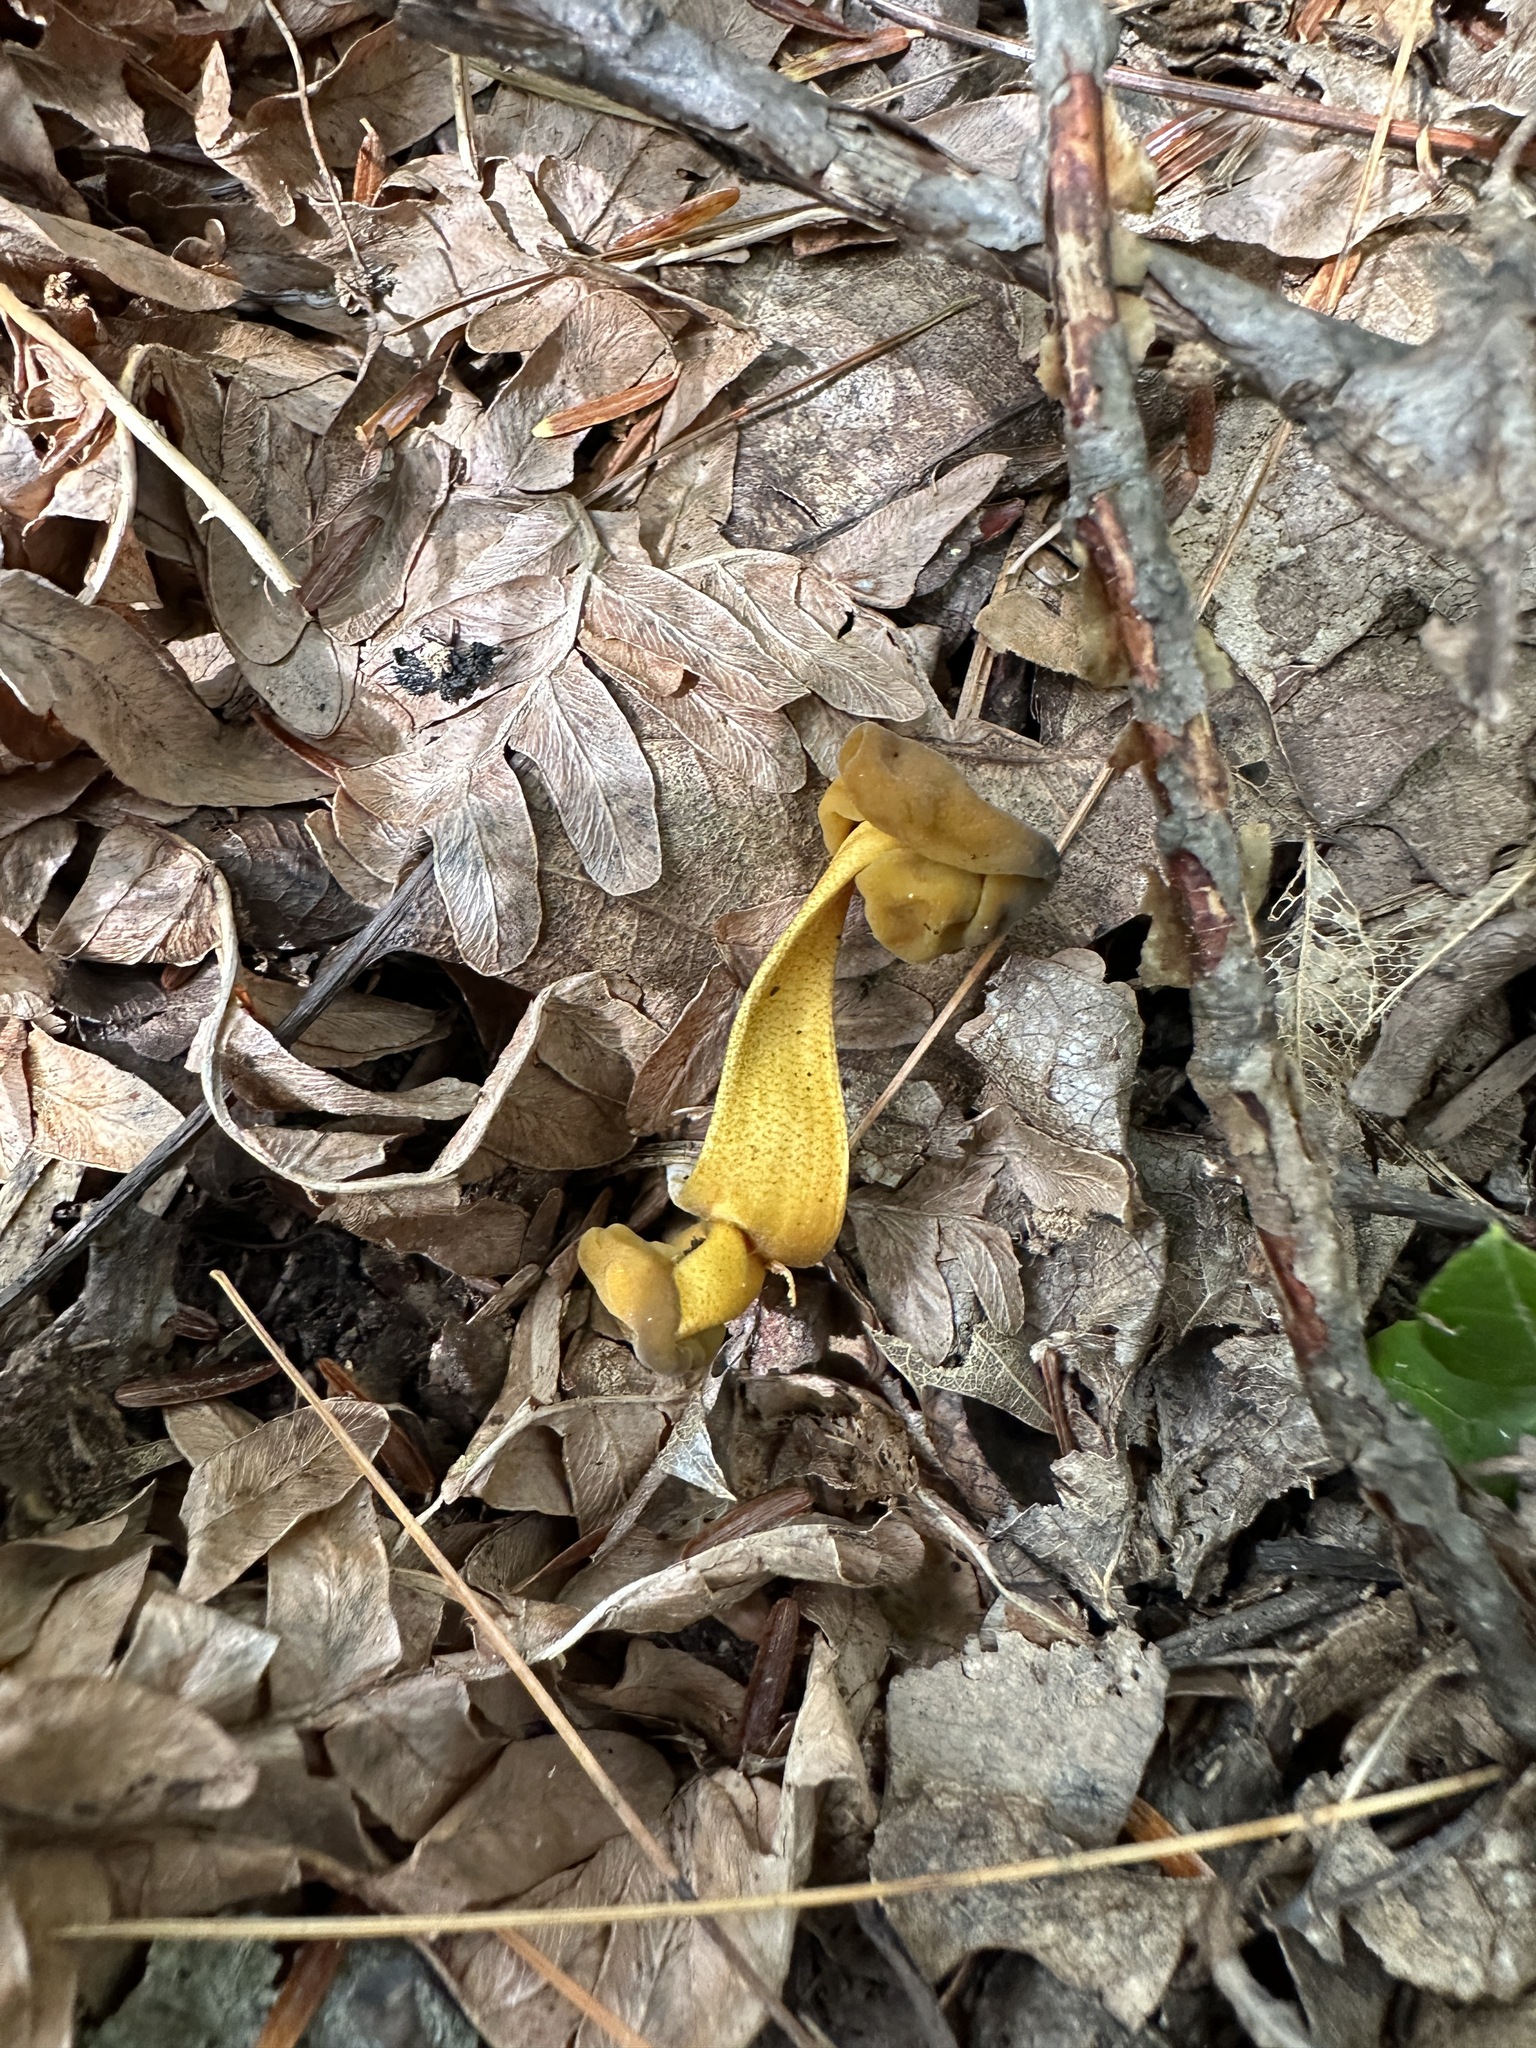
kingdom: Fungi
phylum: Ascomycota
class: Leotiomycetes
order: Leotiales
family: Leotiaceae
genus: Leotia
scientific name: Leotia lubrica
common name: Jellybaby
